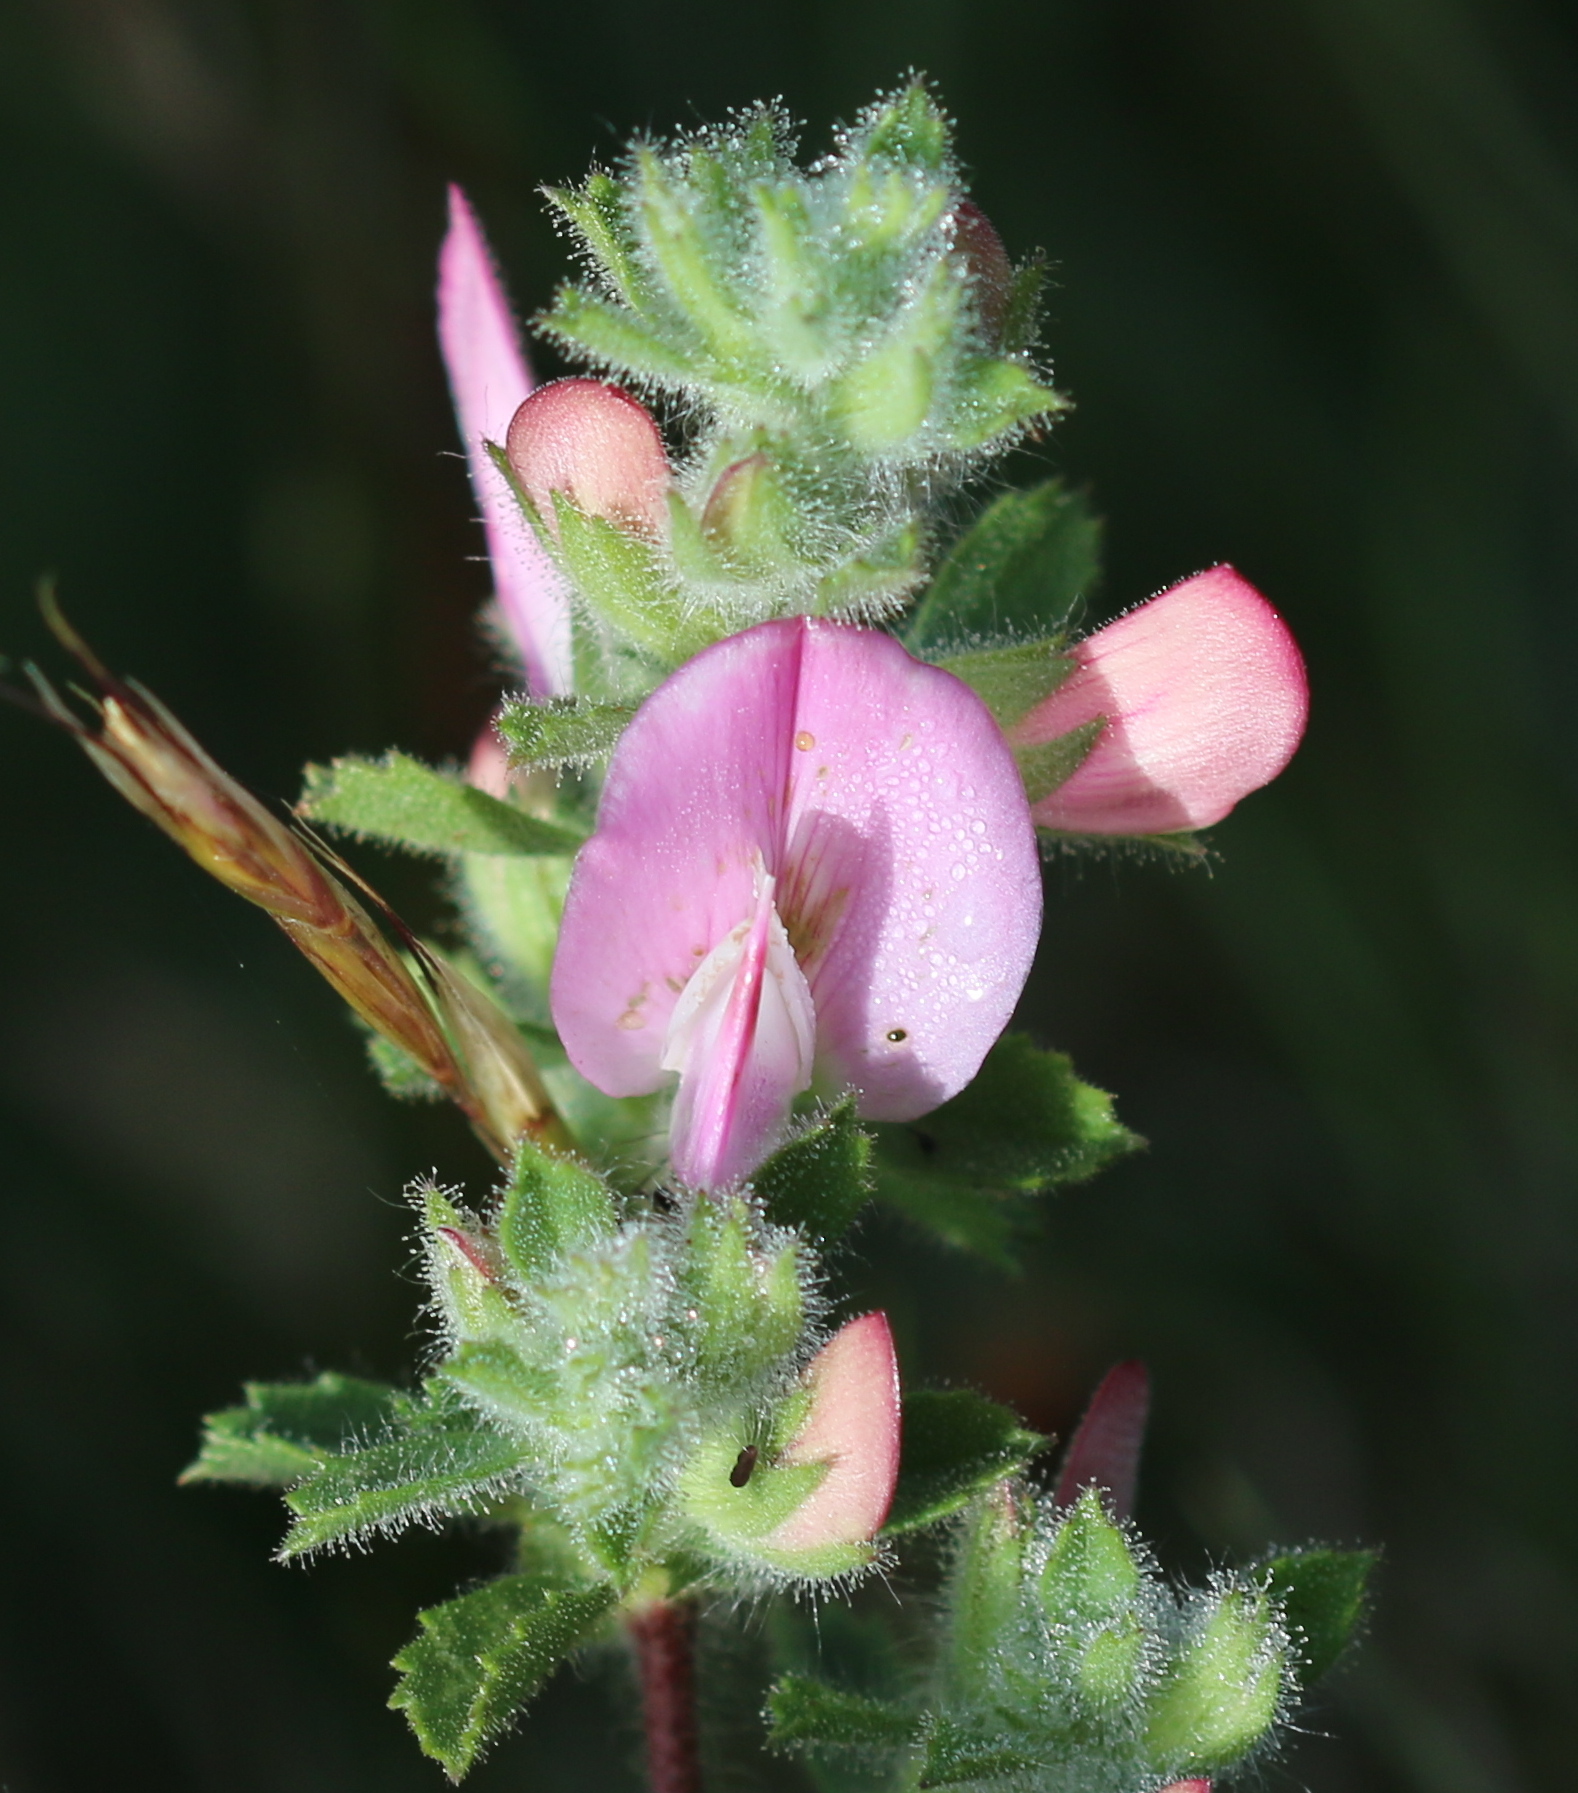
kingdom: Plantae
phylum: Tracheophyta
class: Magnoliopsida
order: Fabales
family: Fabaceae
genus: Ononis
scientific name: Ononis spinosa
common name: Spiny restharrow
